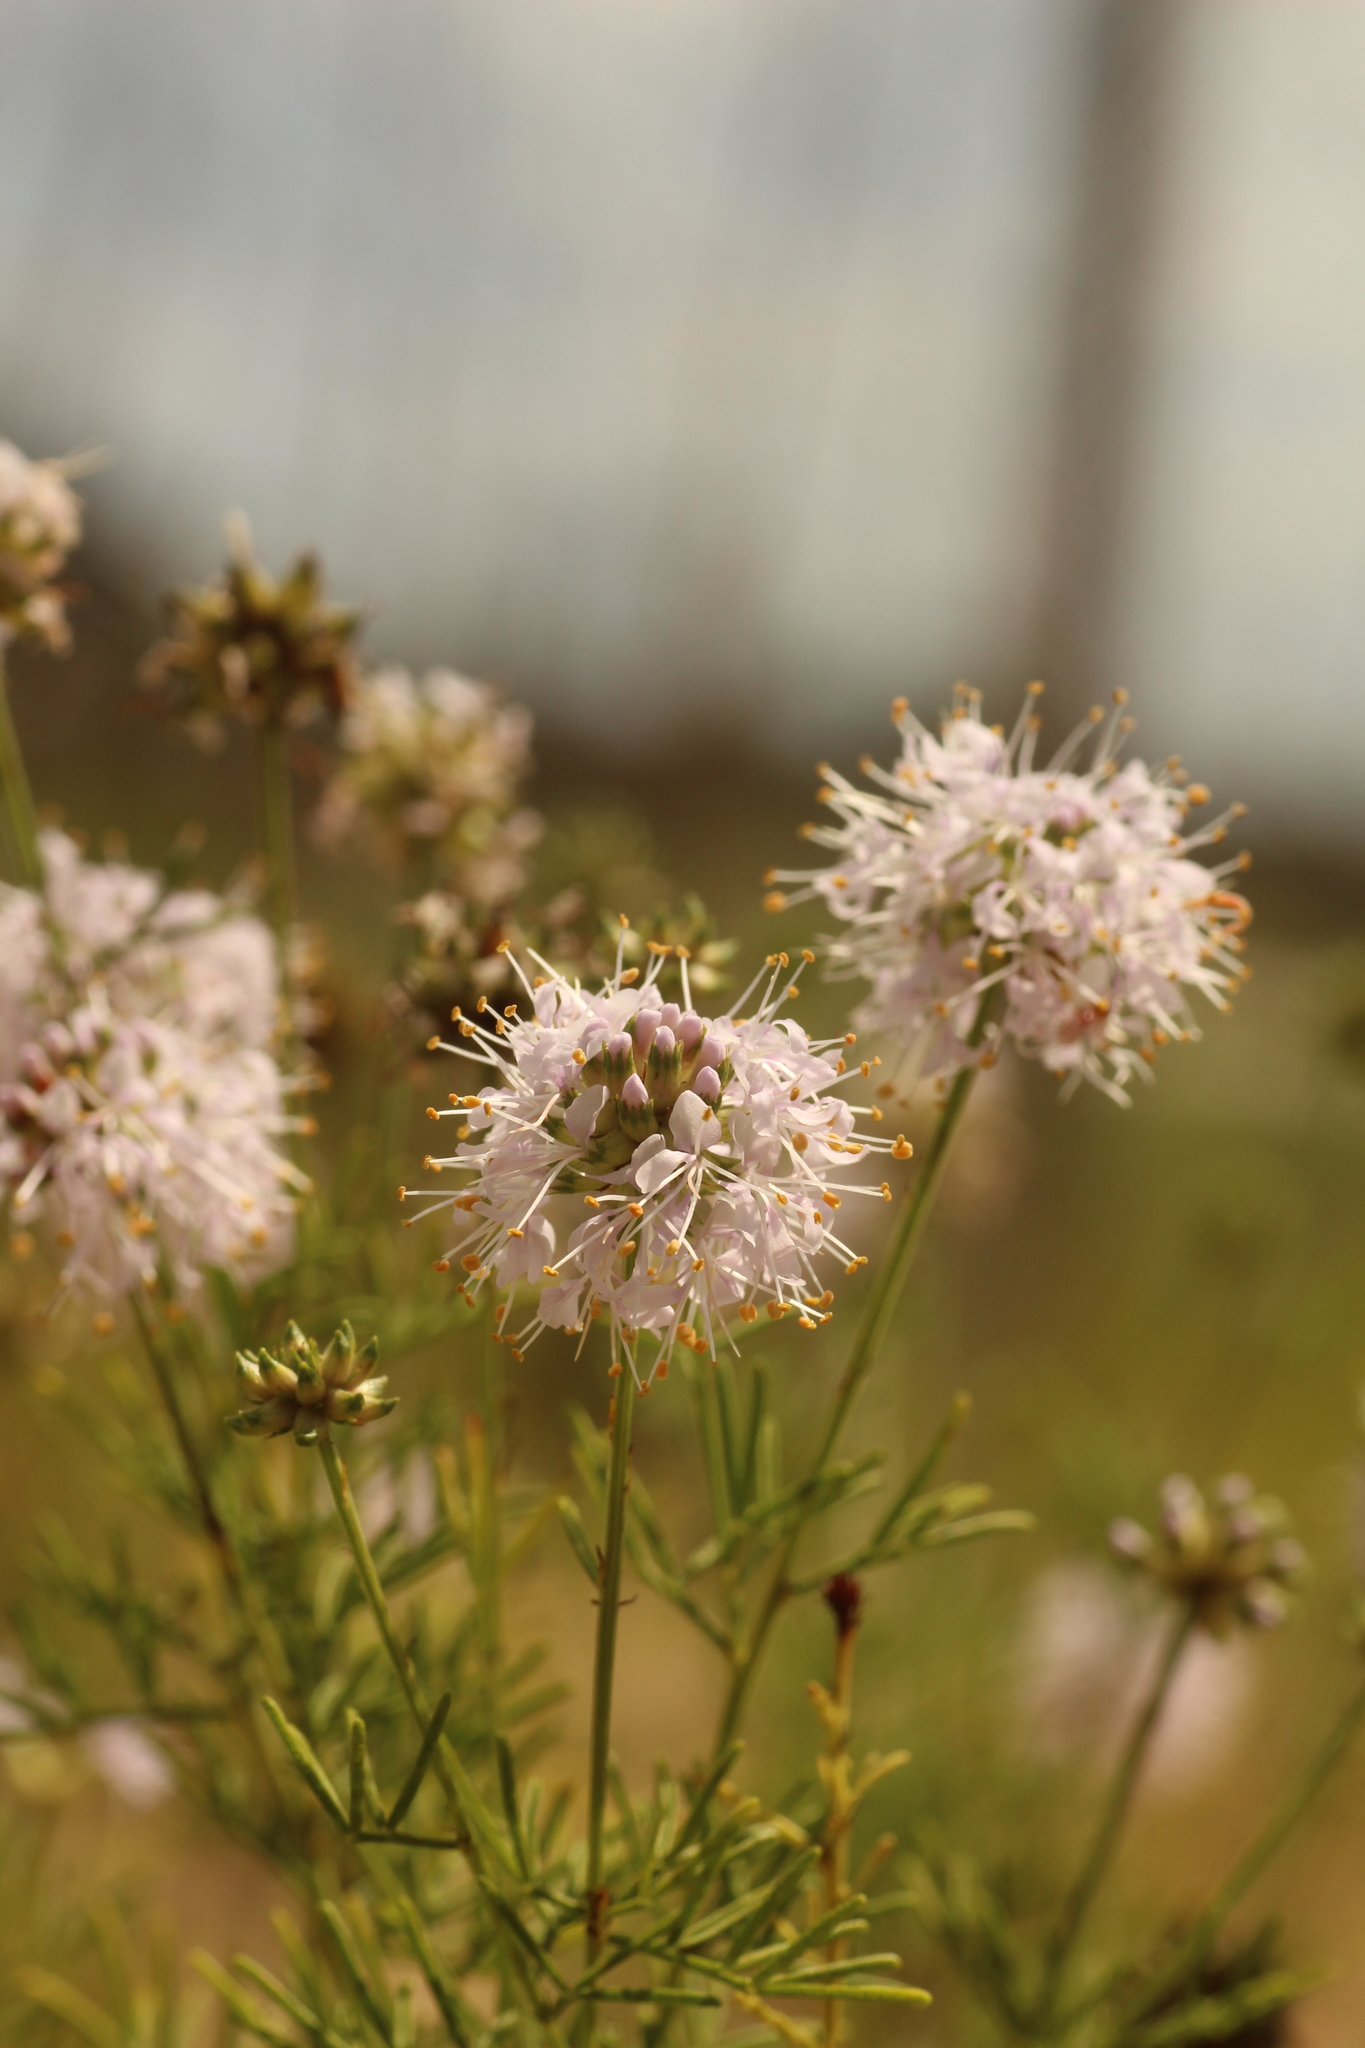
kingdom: Plantae
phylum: Tracheophyta
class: Magnoliopsida
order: Fabales
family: Fabaceae
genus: Dalea
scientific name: Dalea feayi
